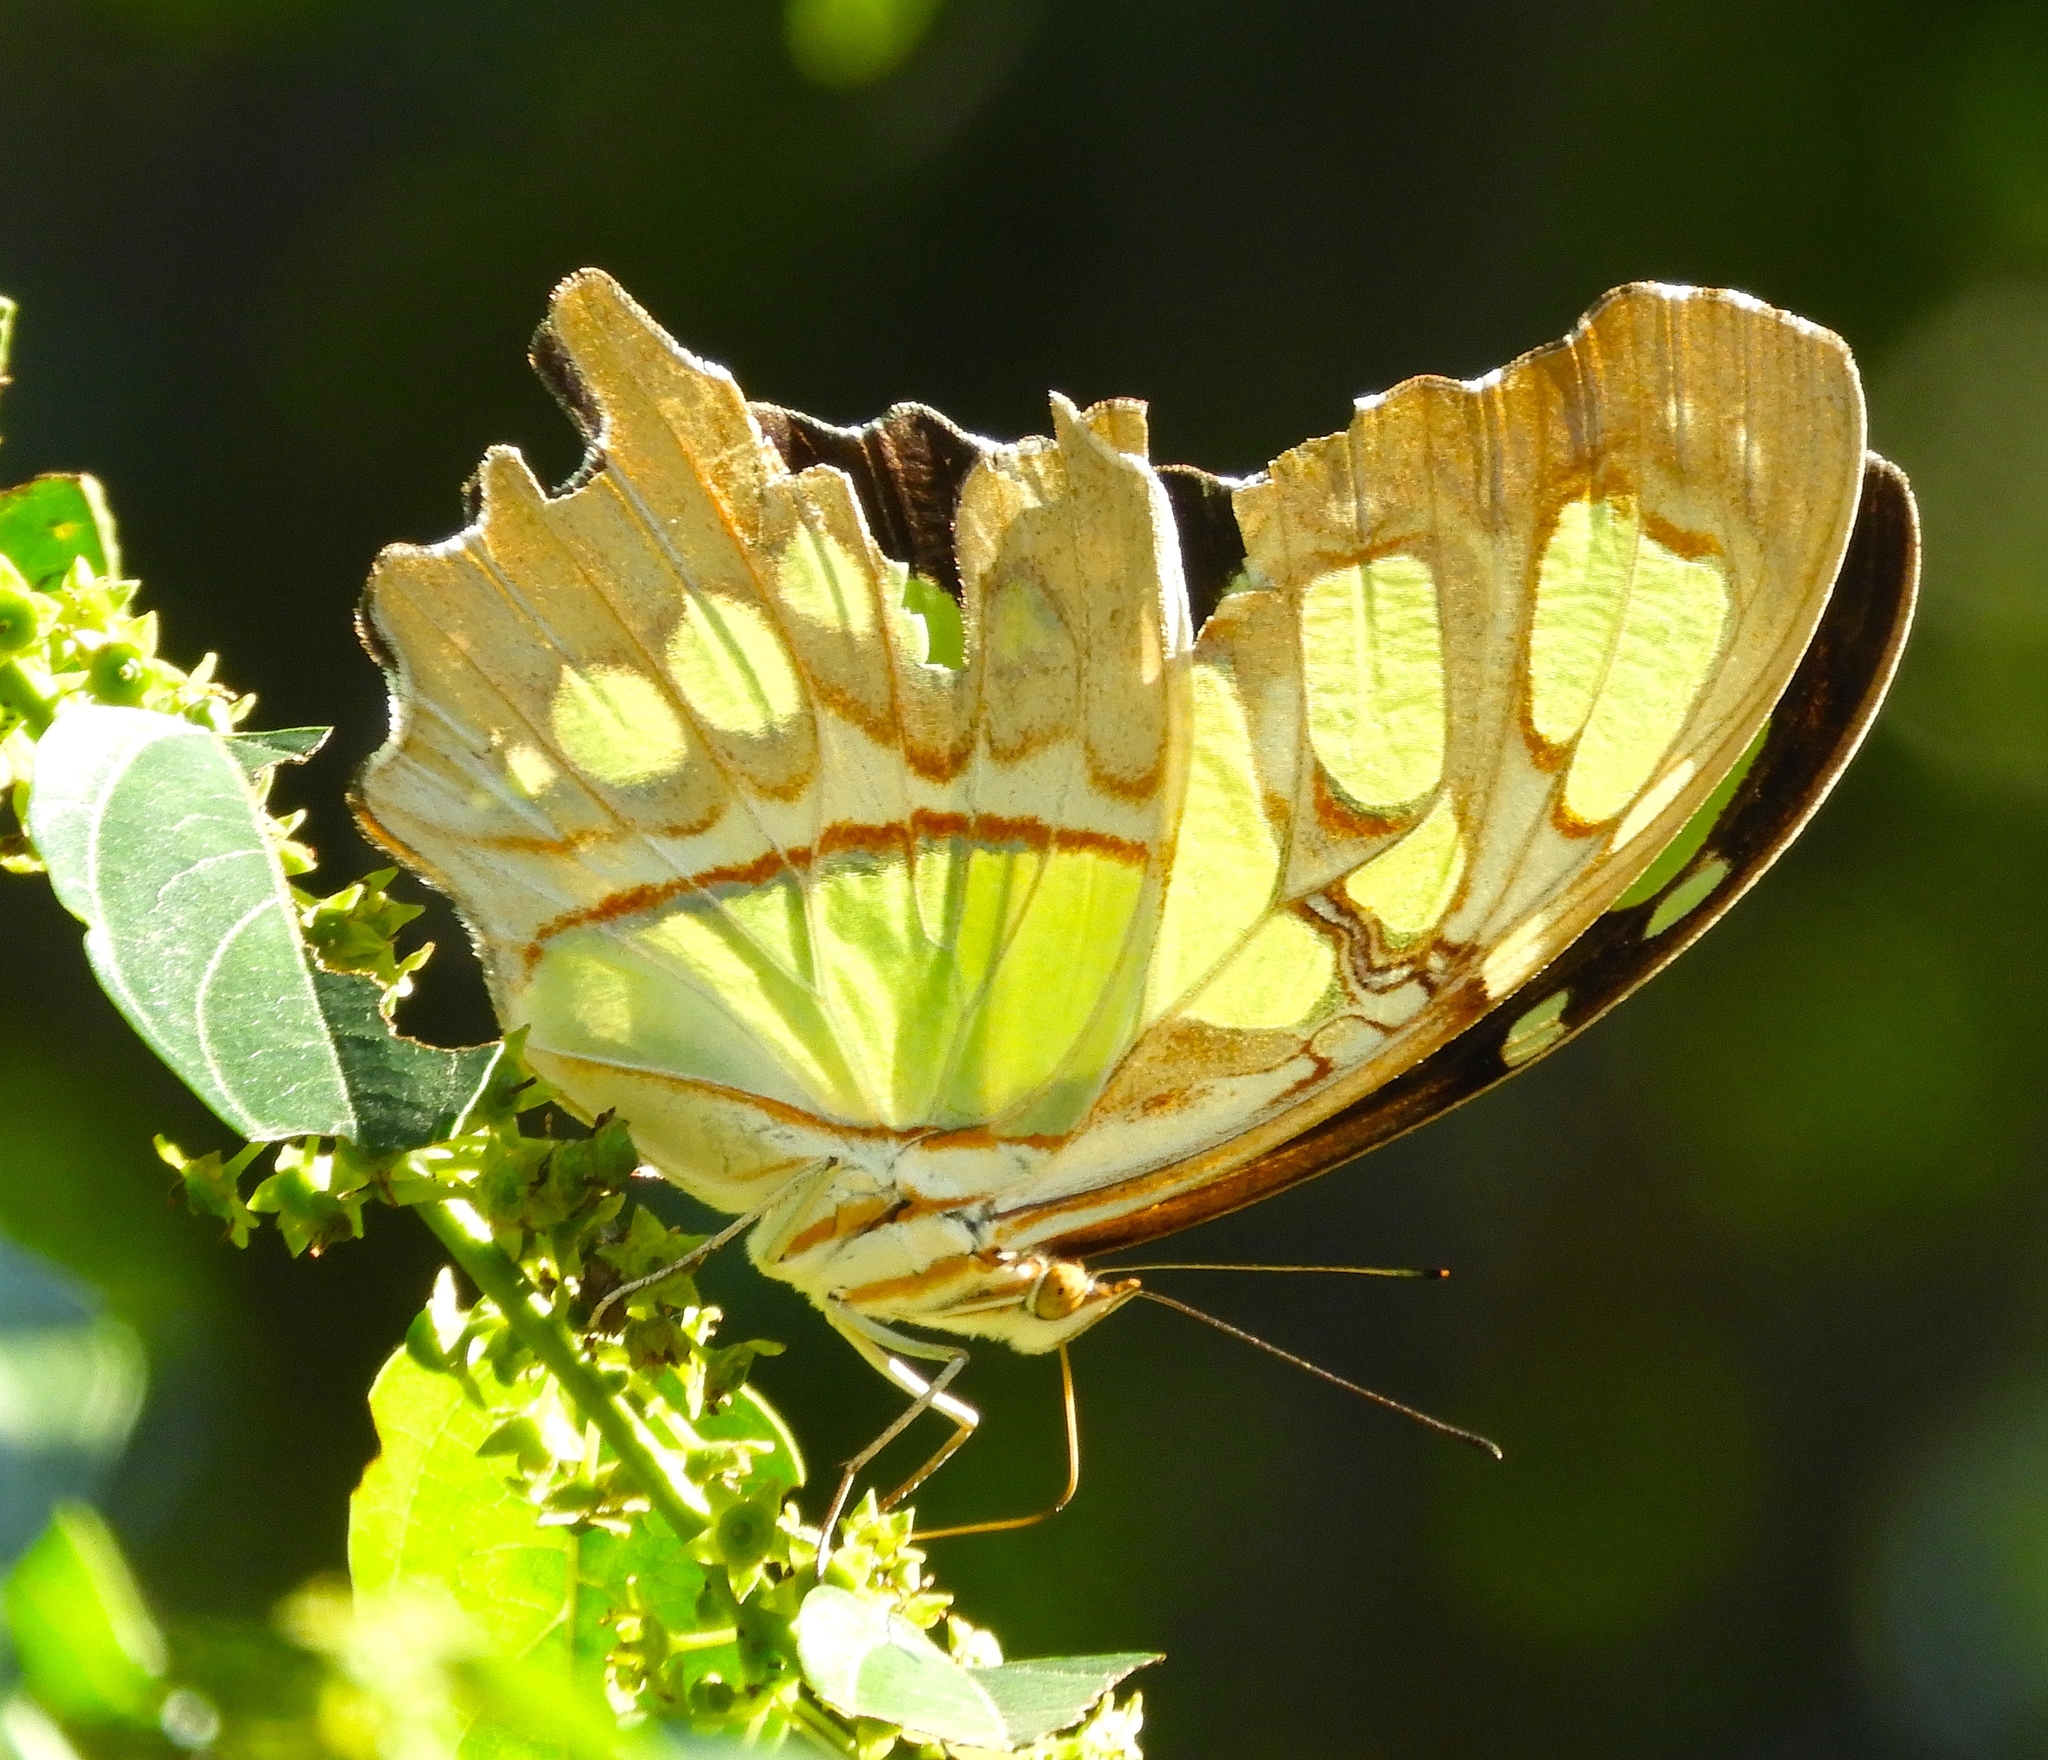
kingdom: Animalia
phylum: Arthropoda
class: Insecta
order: Lepidoptera
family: Nymphalidae
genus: Siproeta
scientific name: Siproeta stelenes
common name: Malachite
